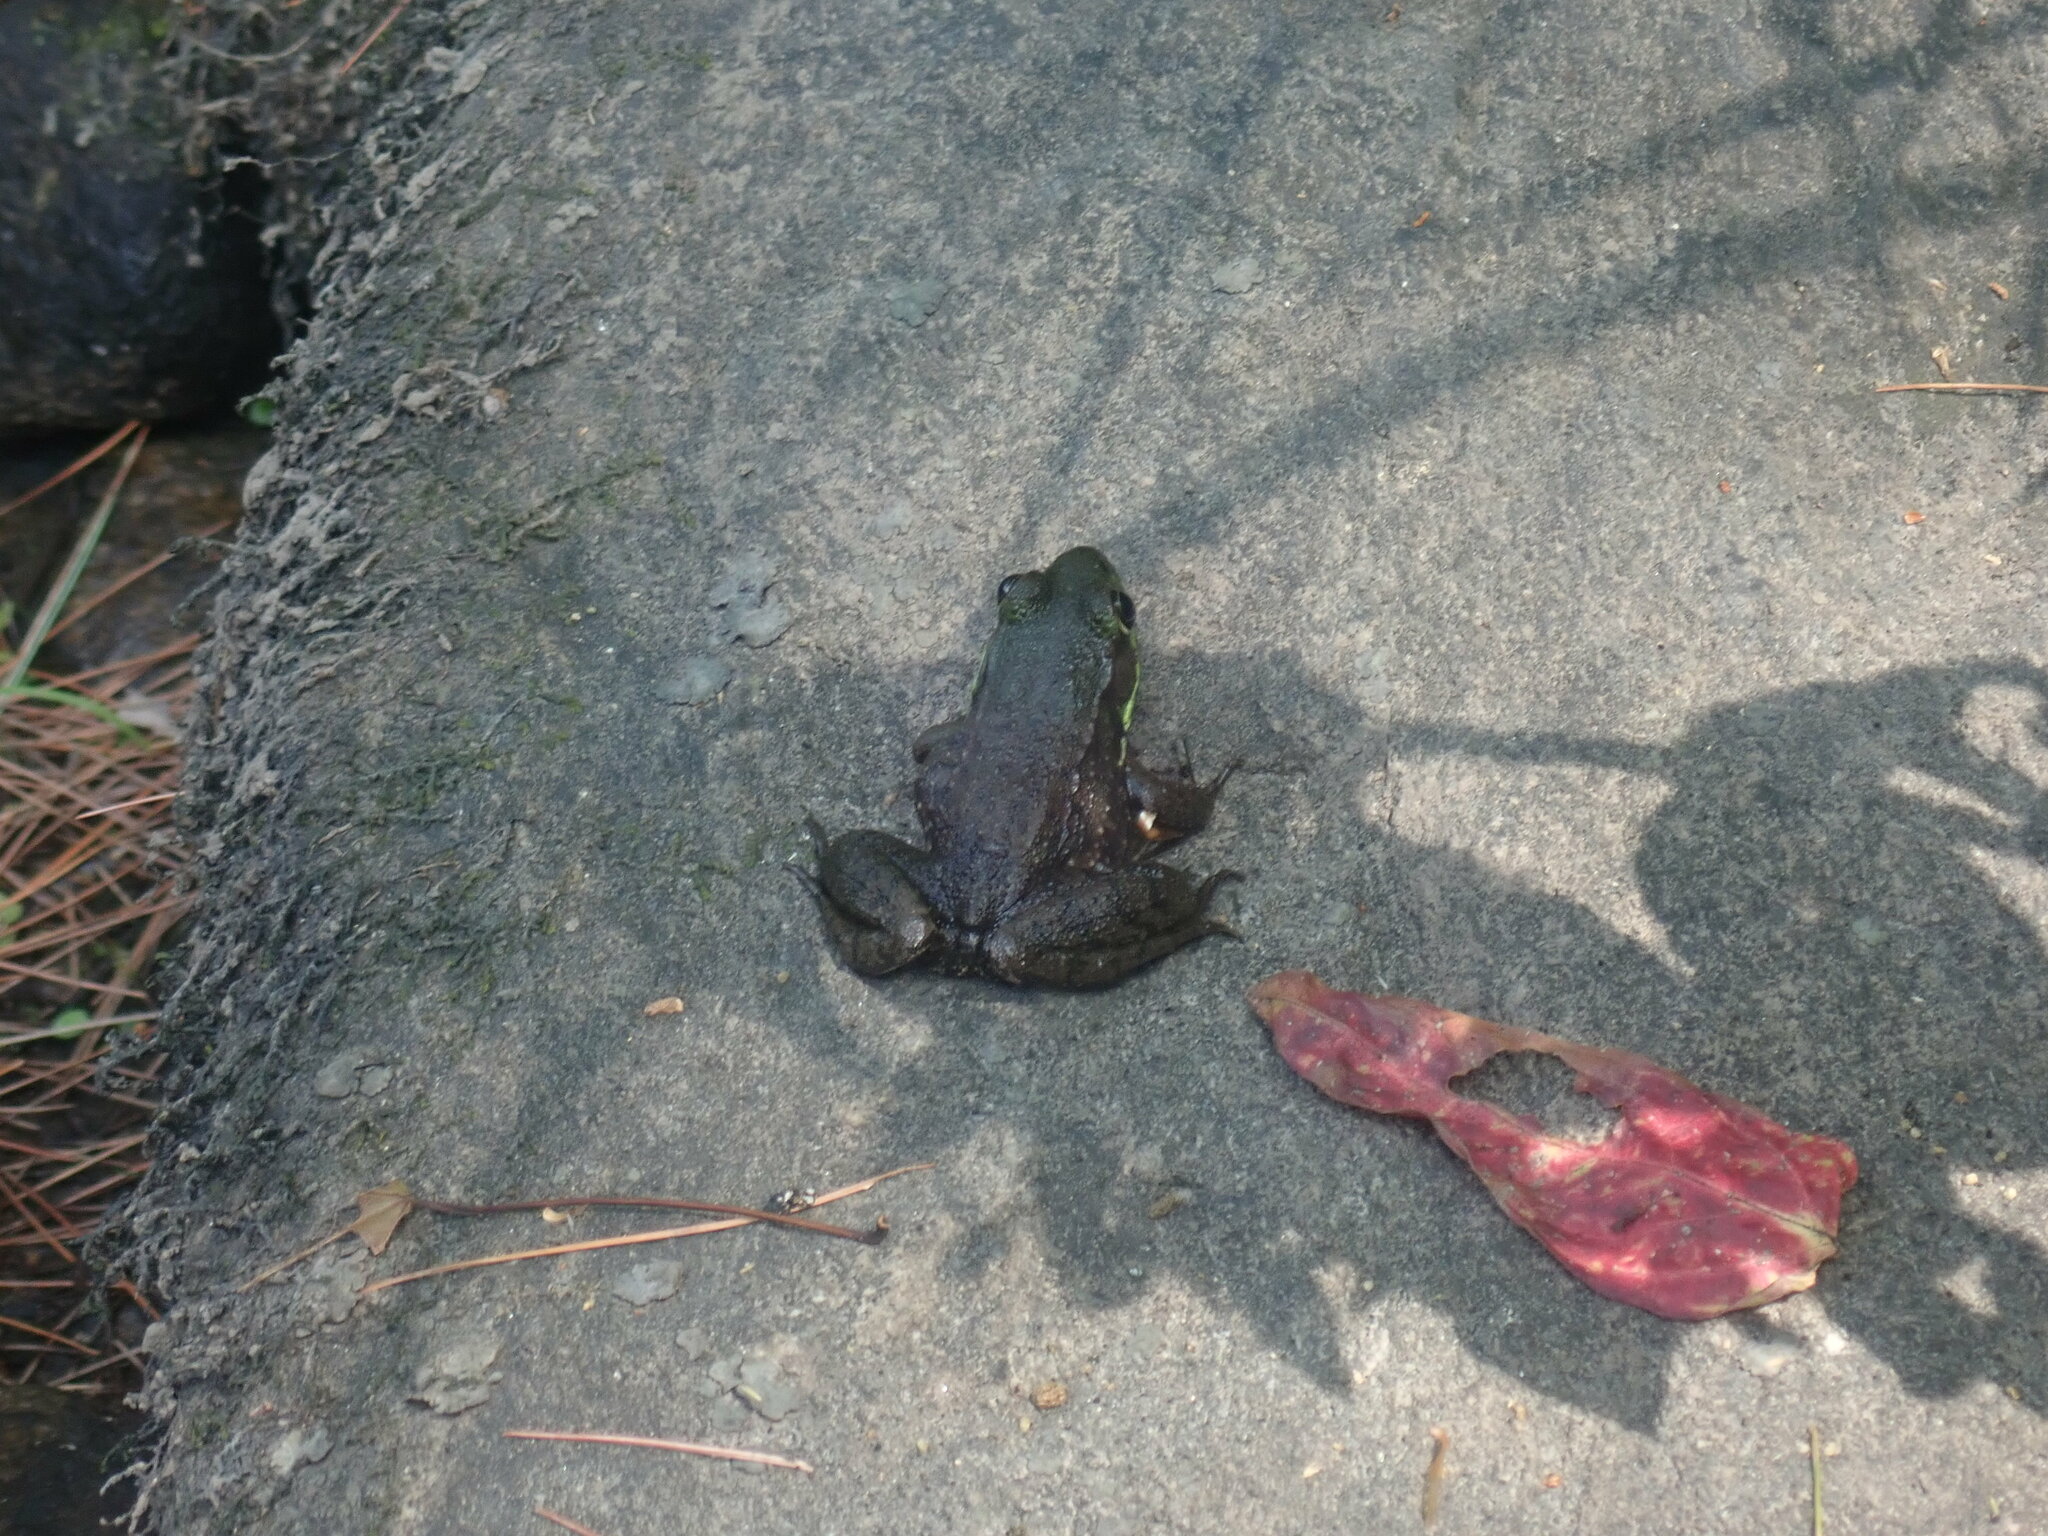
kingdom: Animalia
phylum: Chordata
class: Amphibia
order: Anura
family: Ranidae
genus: Lithobates
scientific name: Lithobates clamitans
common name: Green frog
